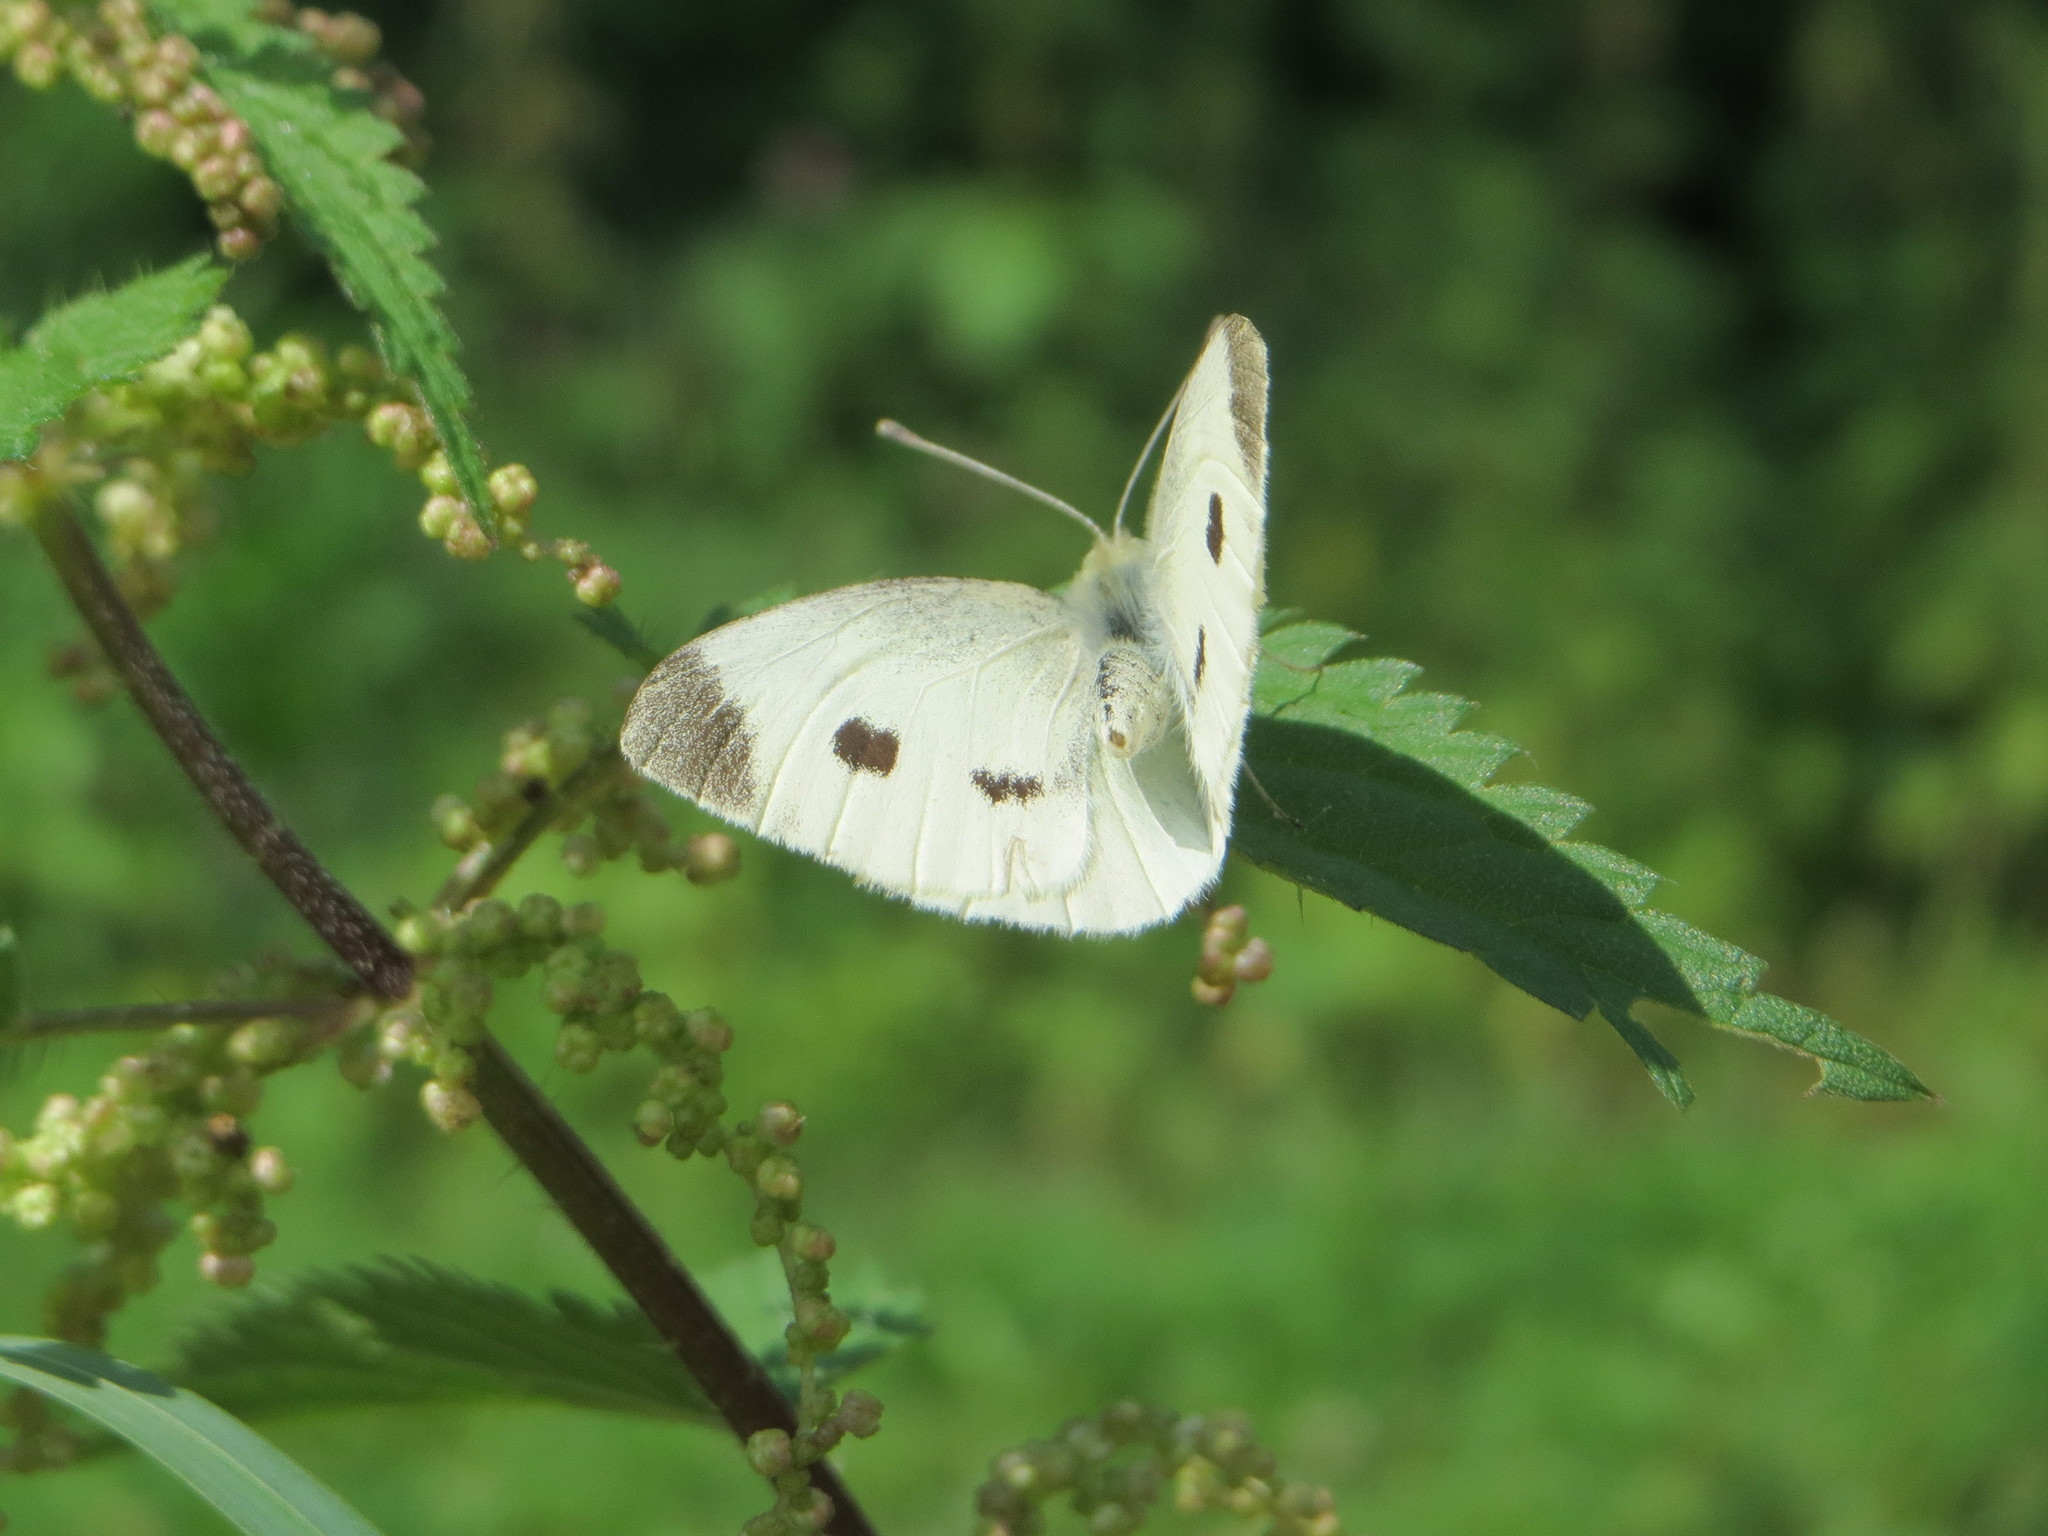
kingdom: Animalia
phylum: Arthropoda
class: Insecta
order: Lepidoptera
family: Pieridae
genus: Pieris
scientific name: Pieris rapae
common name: Small white
